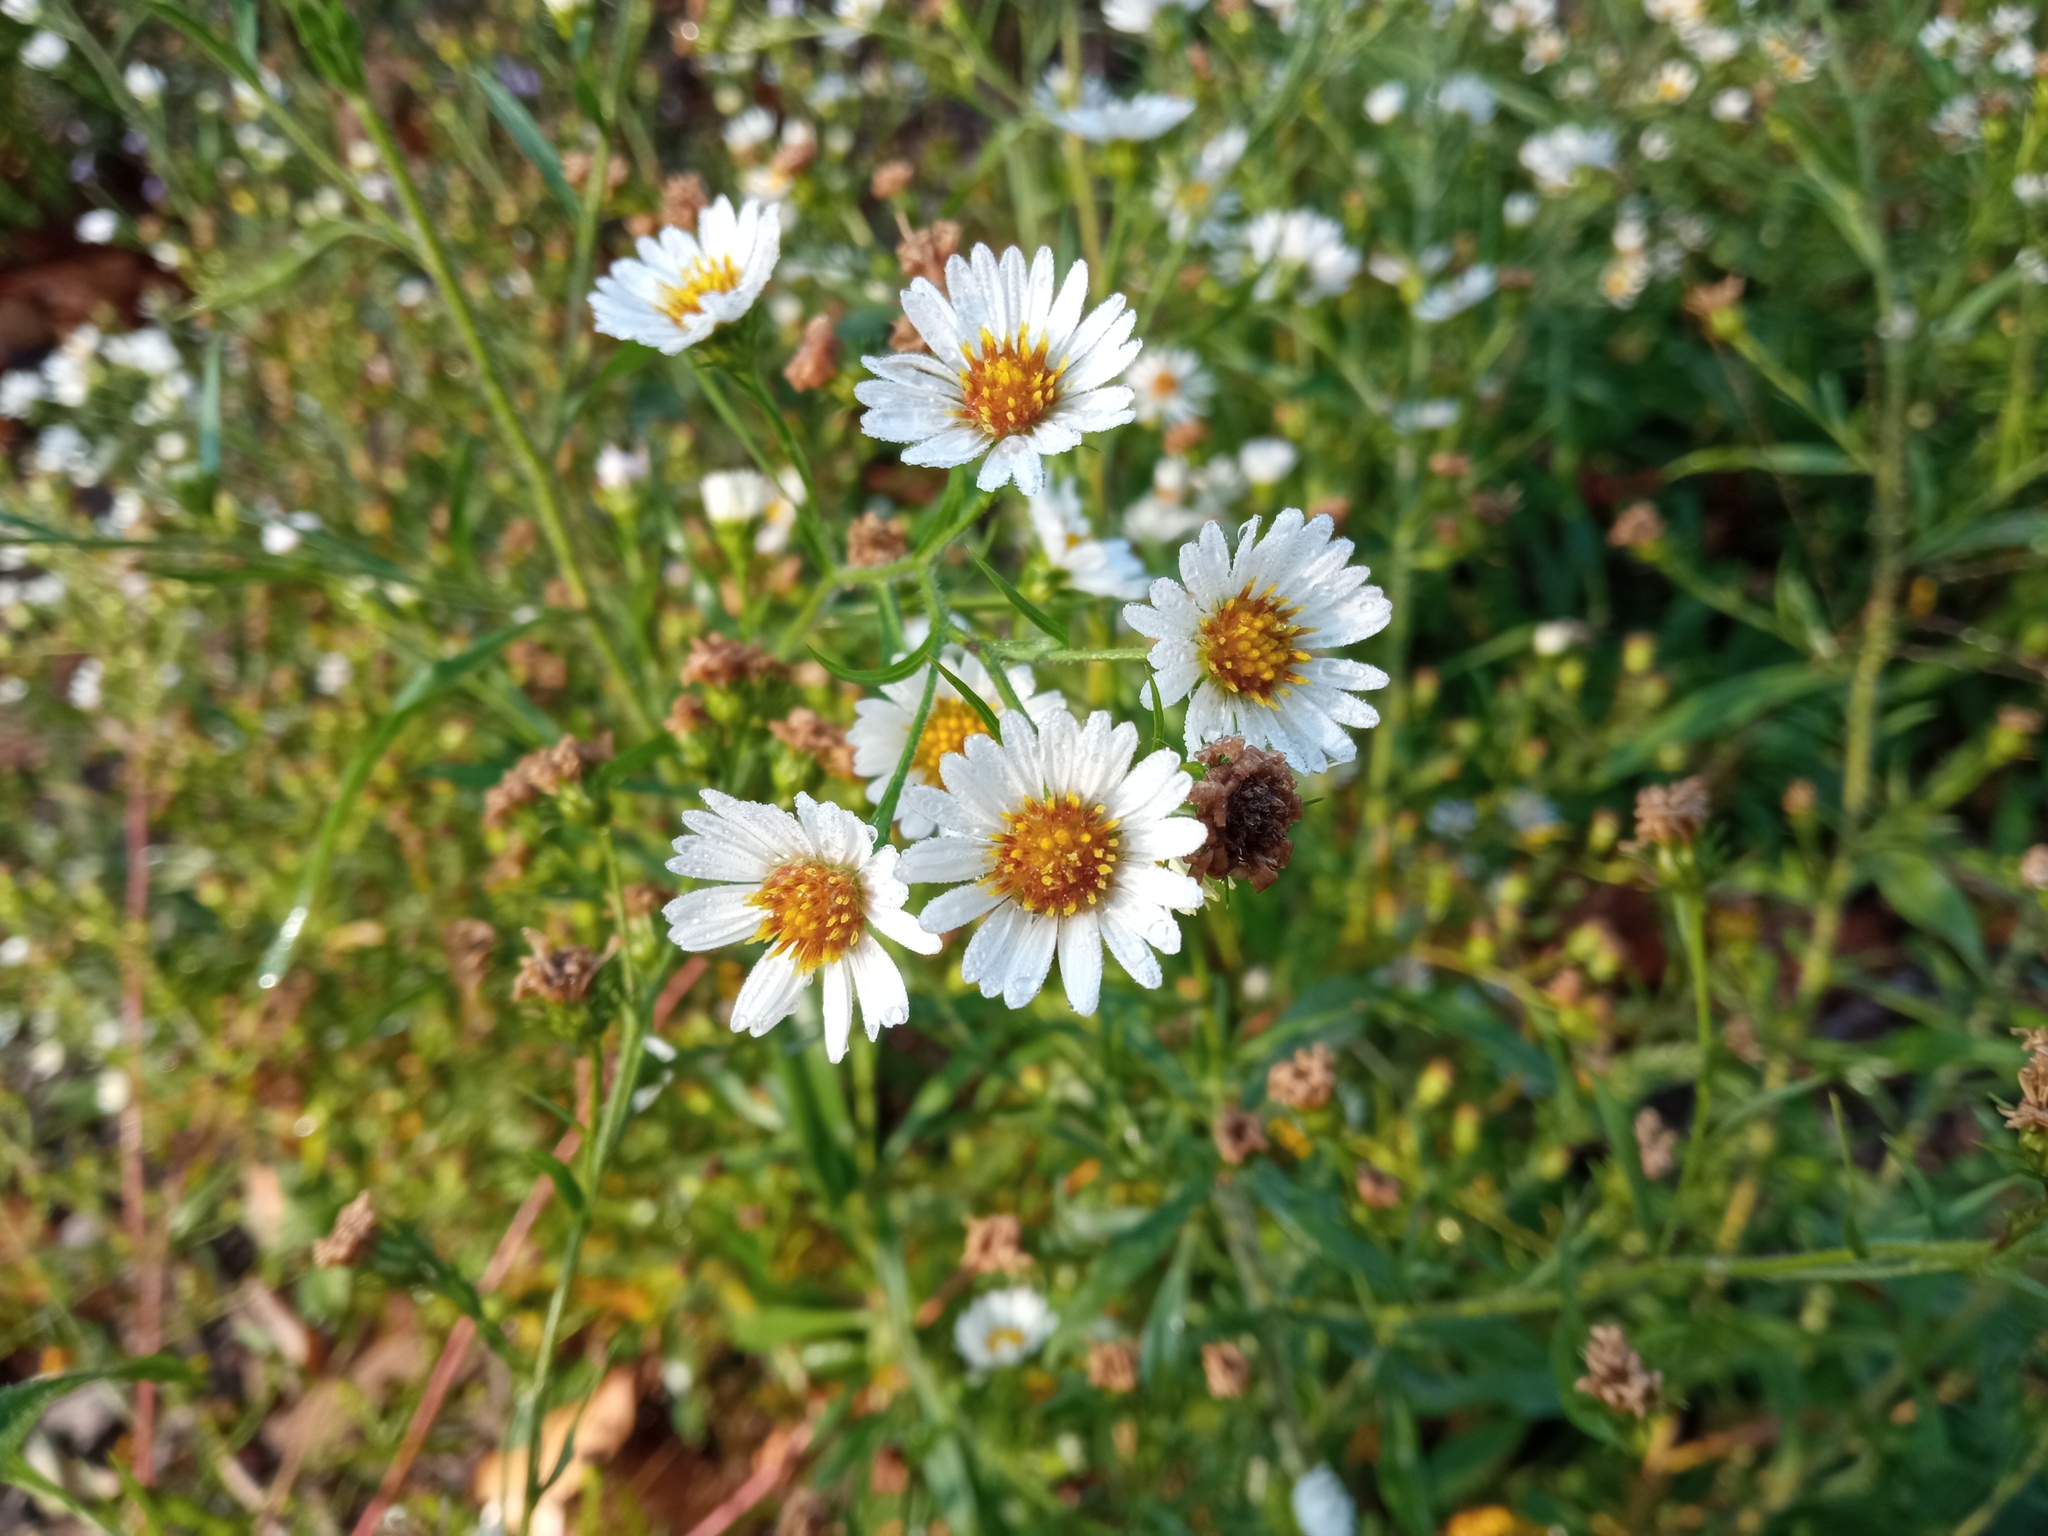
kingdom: Plantae
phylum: Tracheophyta
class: Magnoliopsida
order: Asterales
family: Asteraceae
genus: Symphyotrichum
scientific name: Symphyotrichum pilosum
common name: Awl aster
